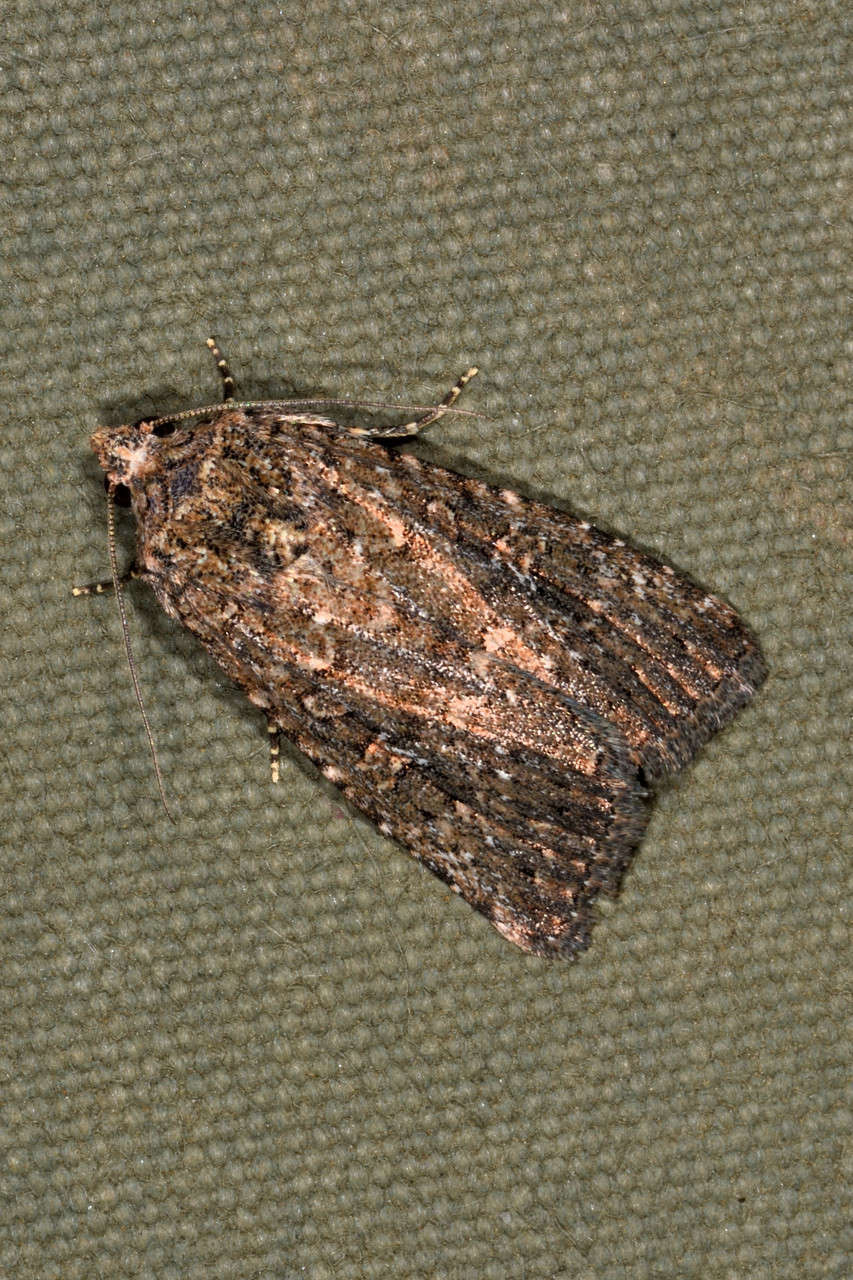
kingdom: Animalia
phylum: Arthropoda
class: Insecta
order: Lepidoptera
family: Noctuidae
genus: Hypoperigea
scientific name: Hypoperigea tonsa
